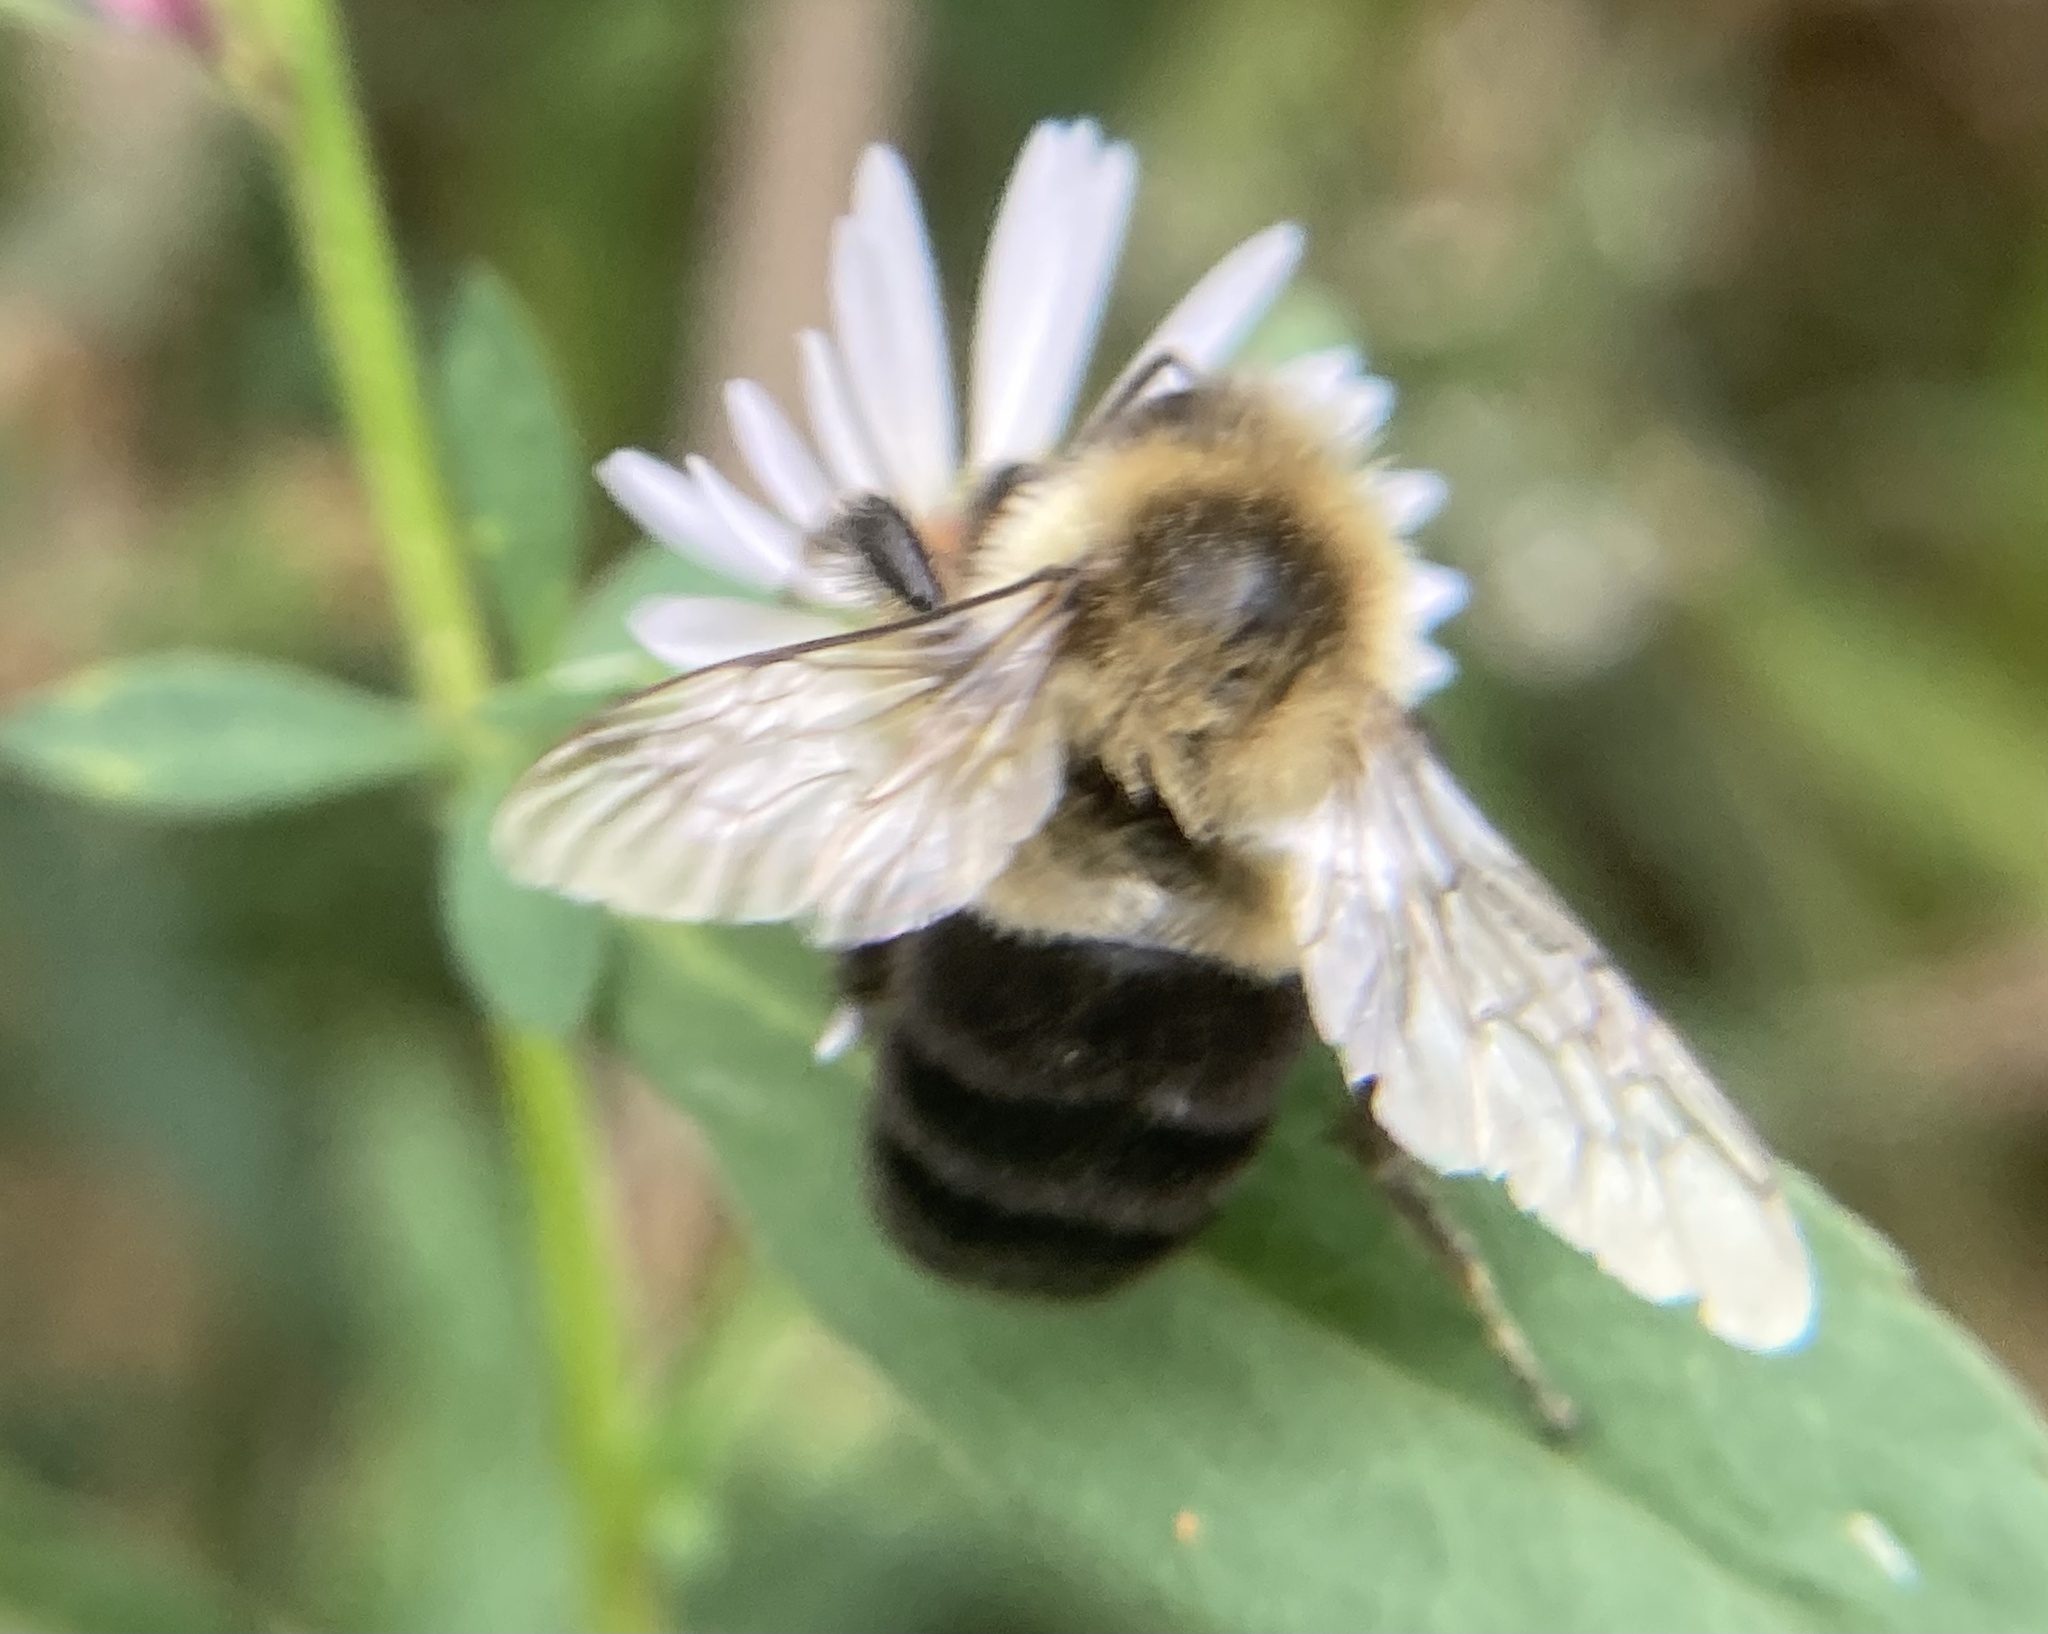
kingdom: Animalia
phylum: Arthropoda
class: Insecta
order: Hymenoptera
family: Apidae
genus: Bombus
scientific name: Bombus impatiens
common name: Common eastern bumble bee
